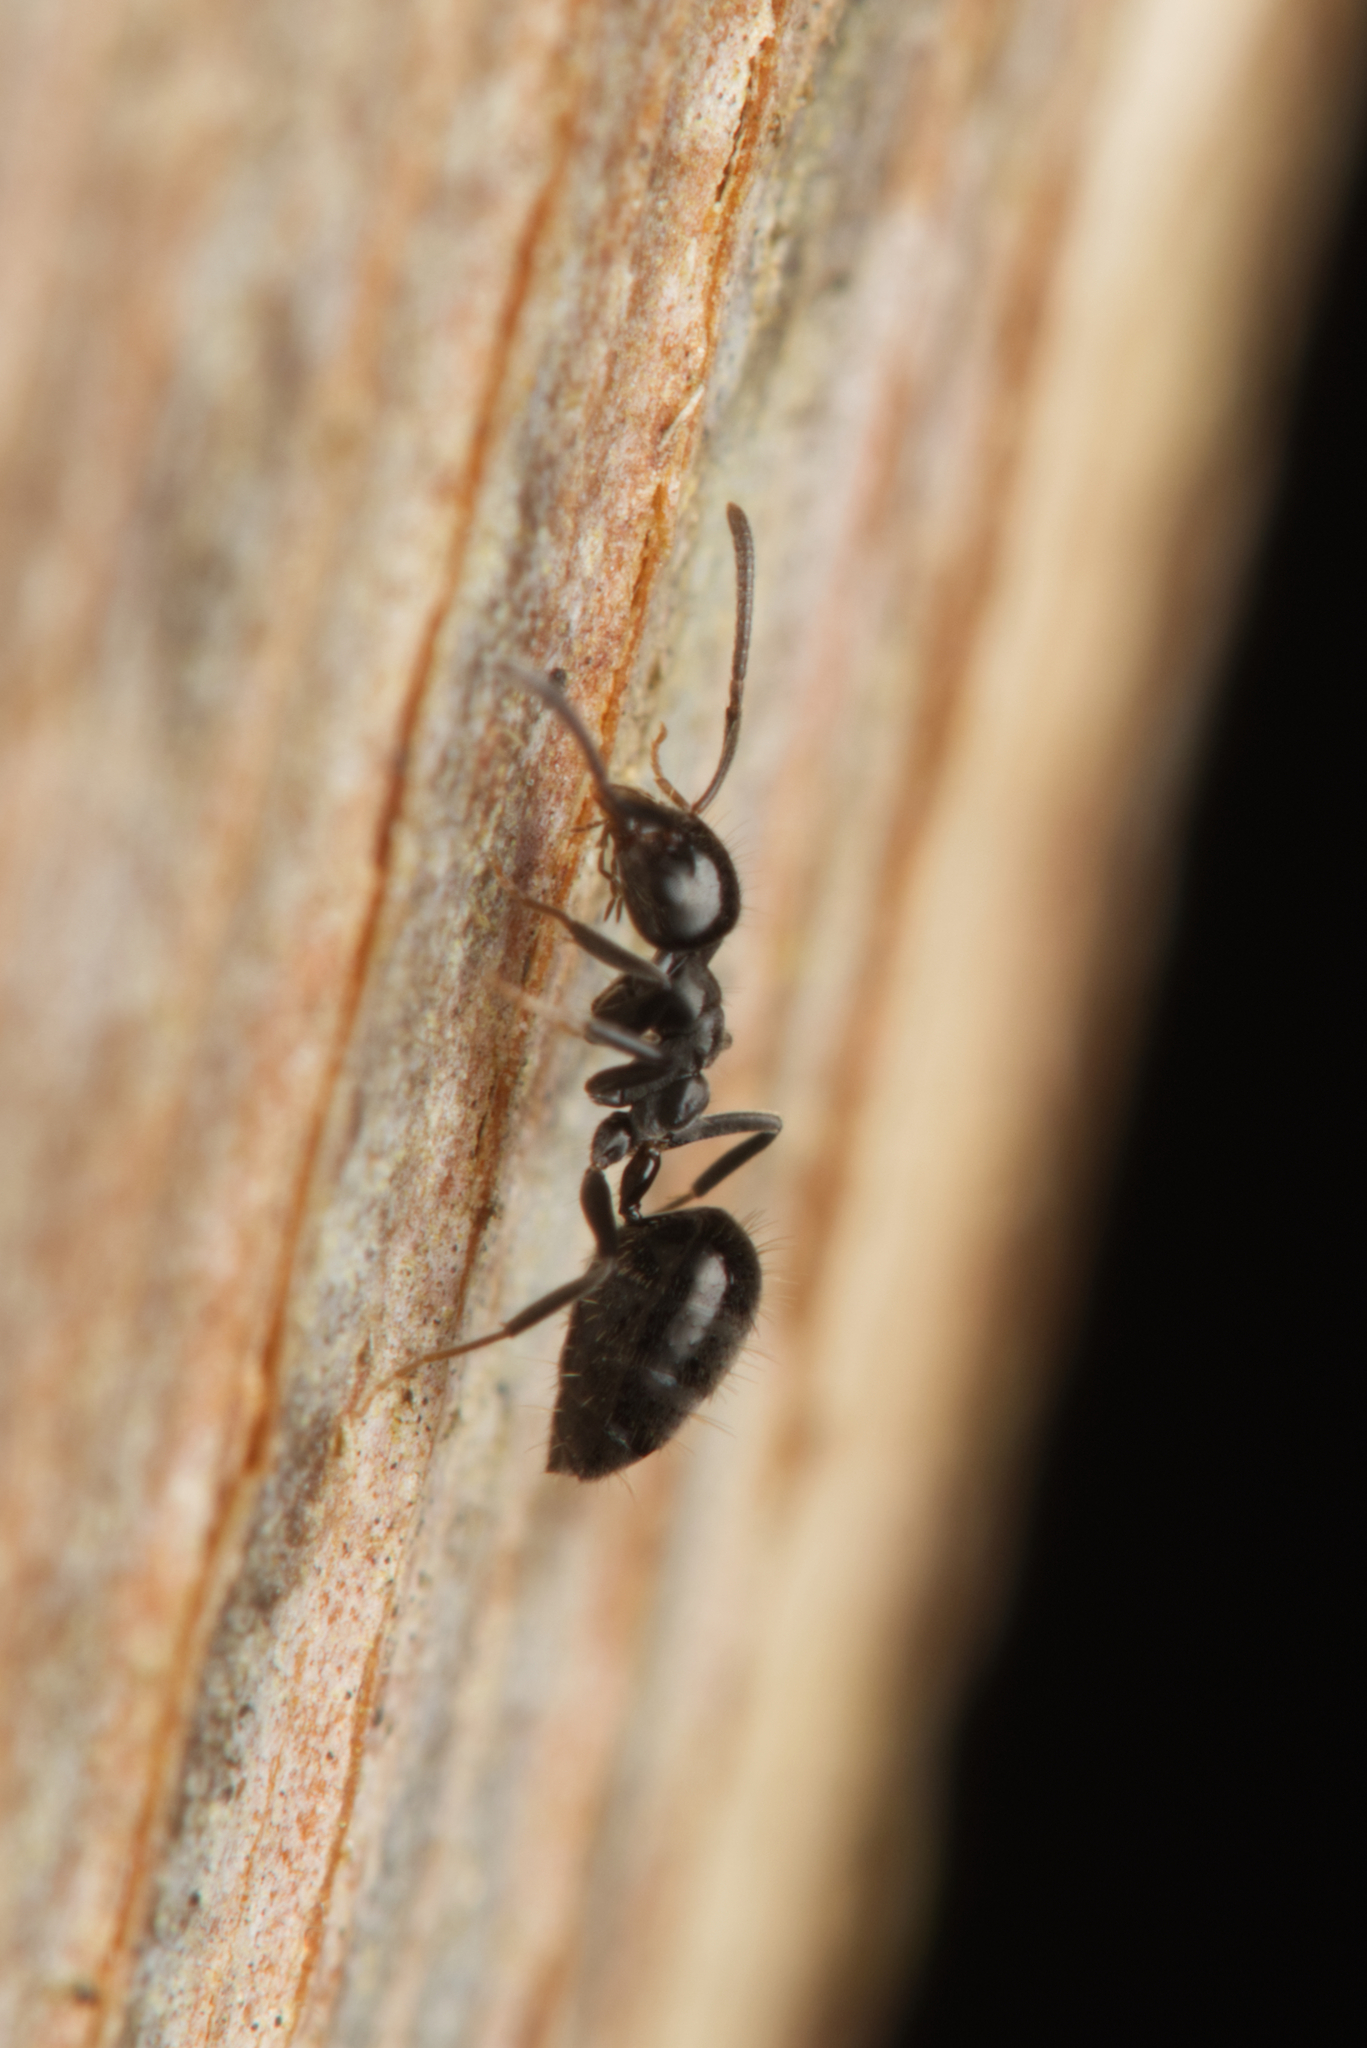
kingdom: Animalia
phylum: Arthropoda
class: Insecta
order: Hymenoptera
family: Formicidae
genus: Technomyrmex
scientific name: Technomyrmex sophiae
